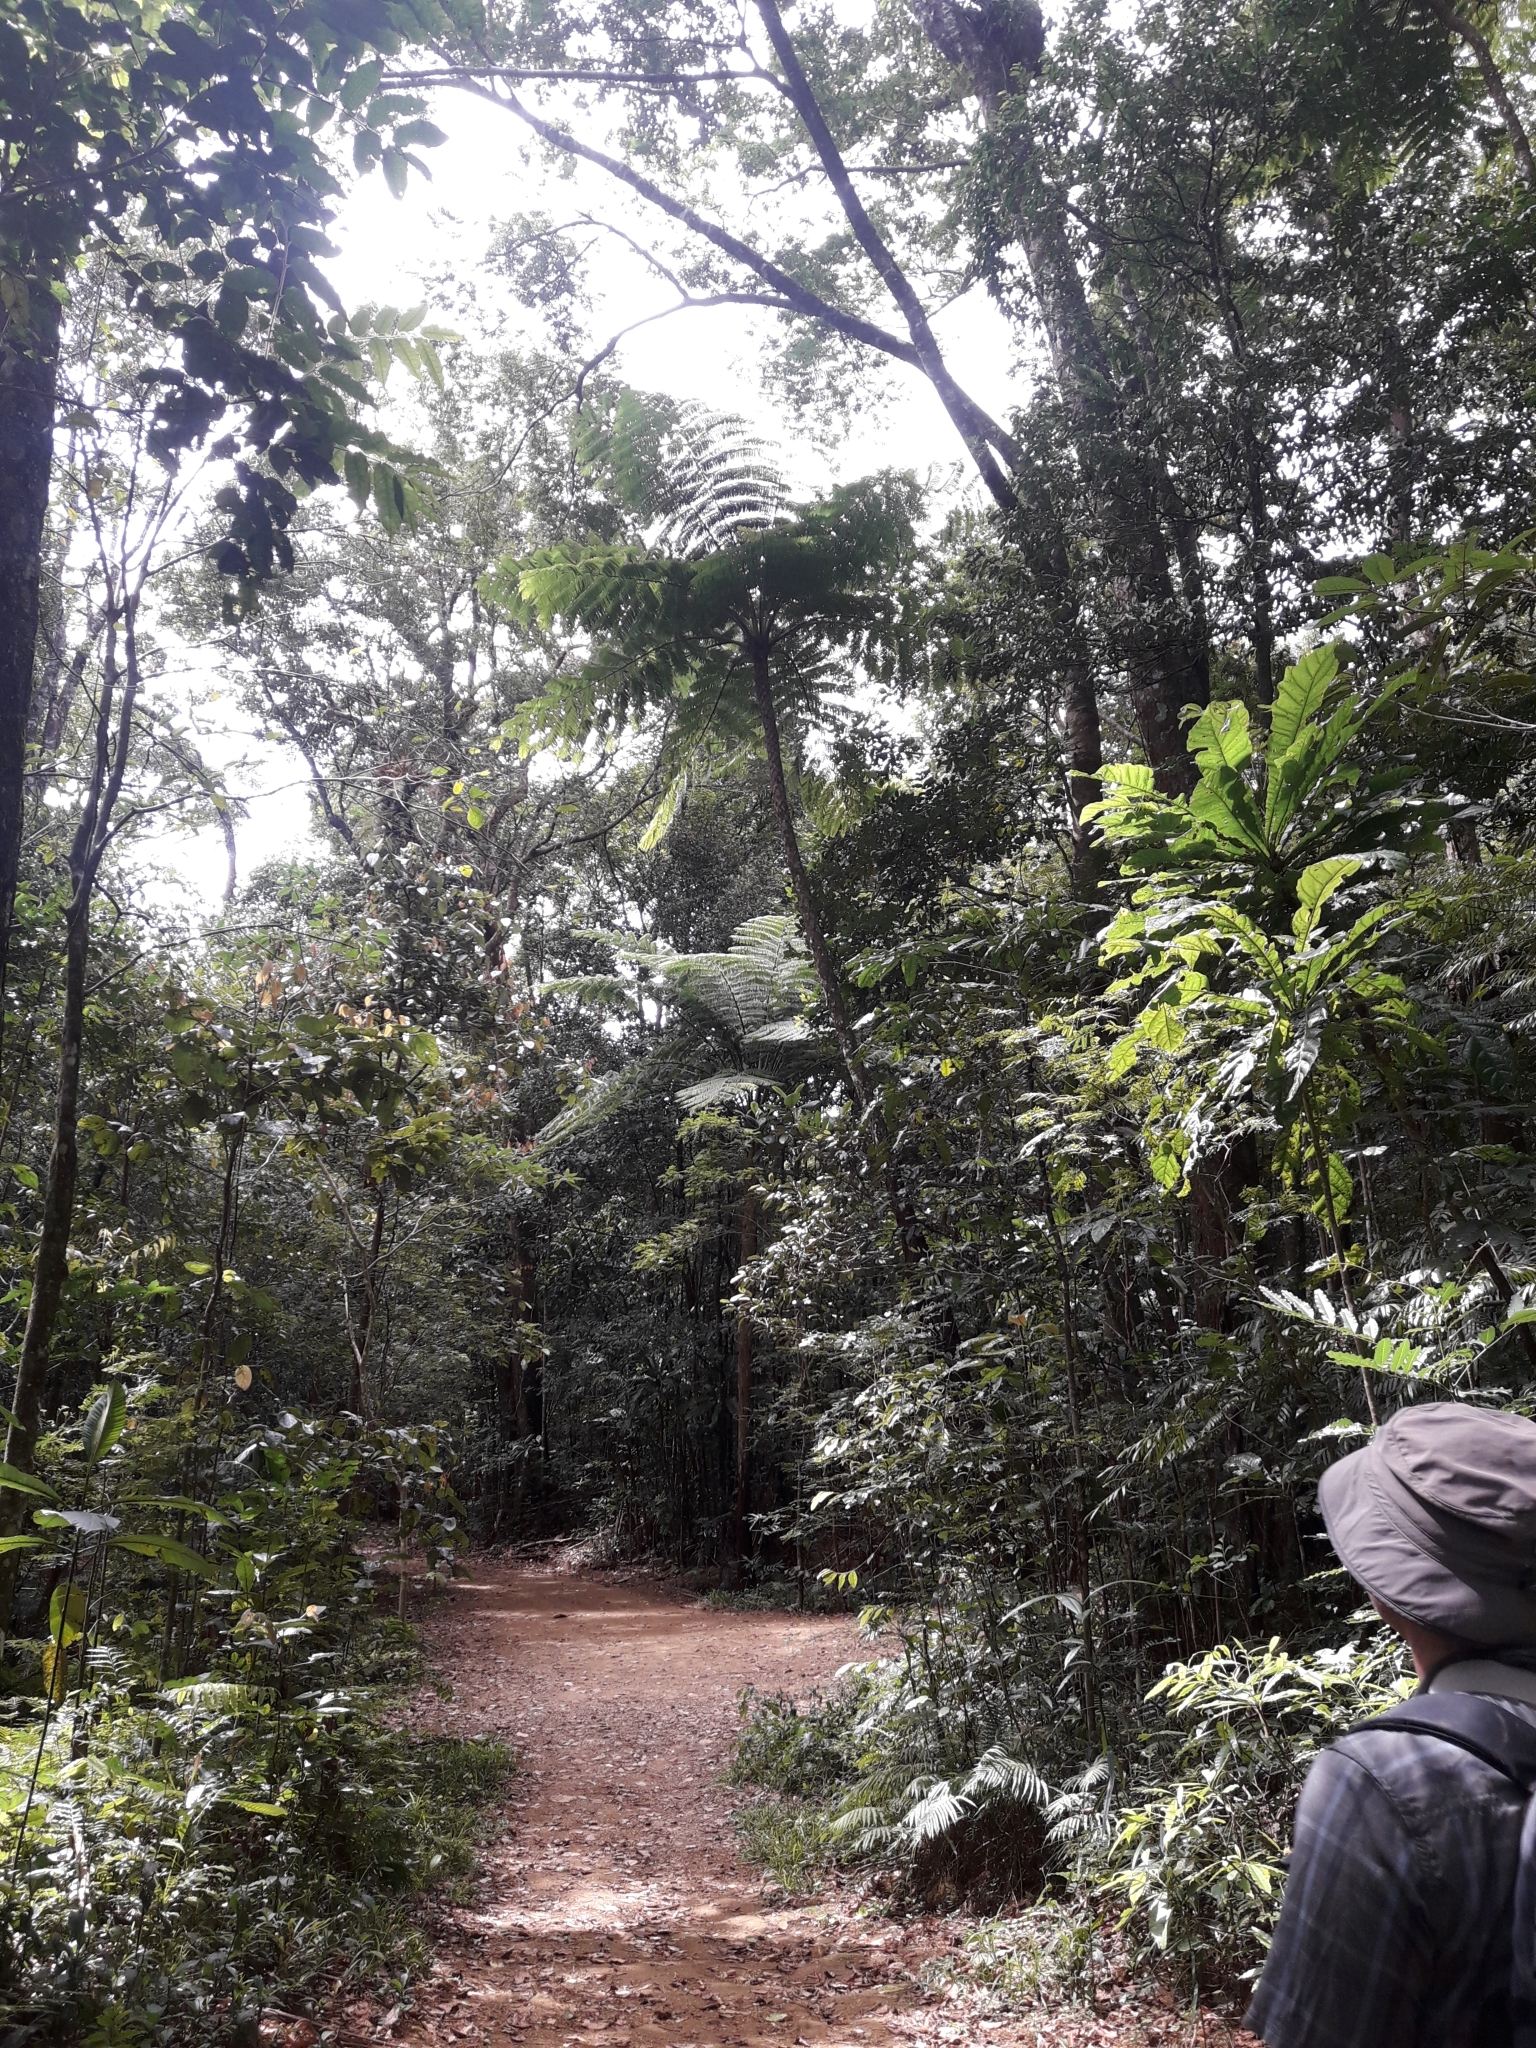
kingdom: Plantae
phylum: Tracheophyta
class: Polypodiopsida
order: Cyatheales
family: Cyatheaceae
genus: Sphaeropteris
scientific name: Sphaeropteris intermedia
